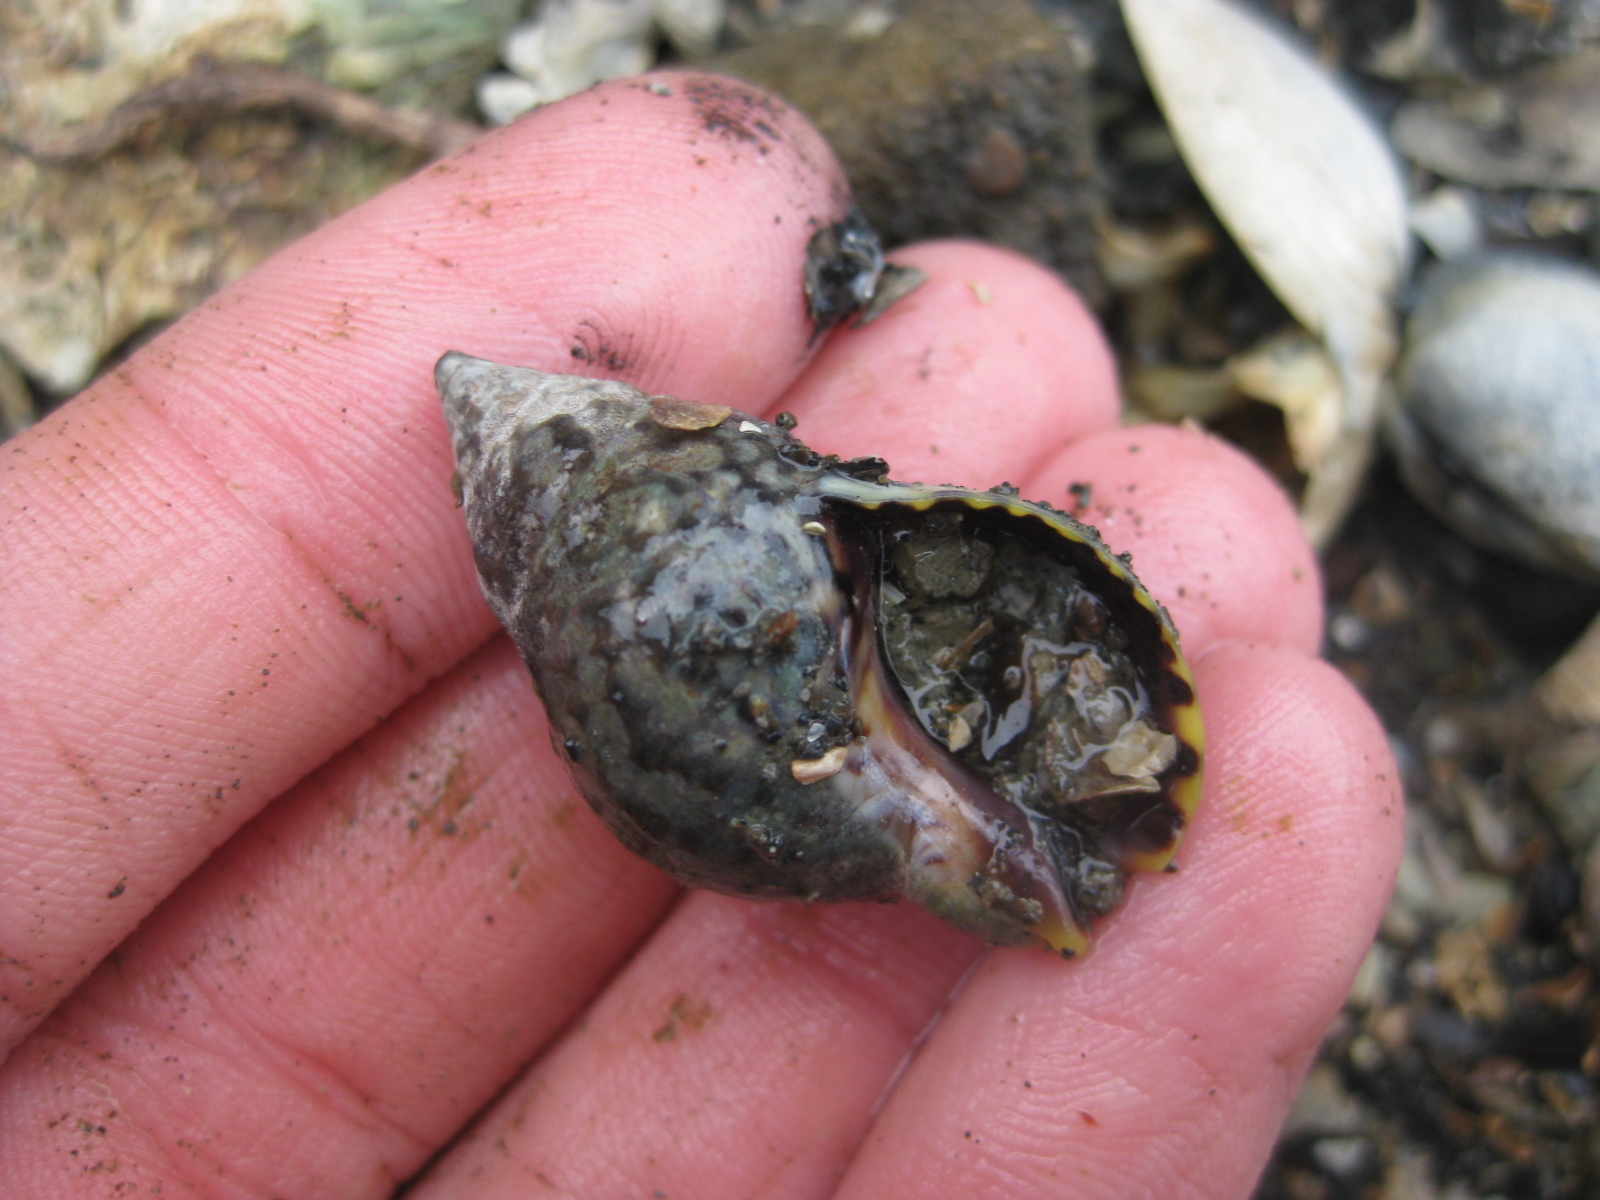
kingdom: Animalia
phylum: Mollusca
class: Gastropoda
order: Neogastropoda
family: Cominellidae
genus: Cominella
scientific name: Cominella maculosa
